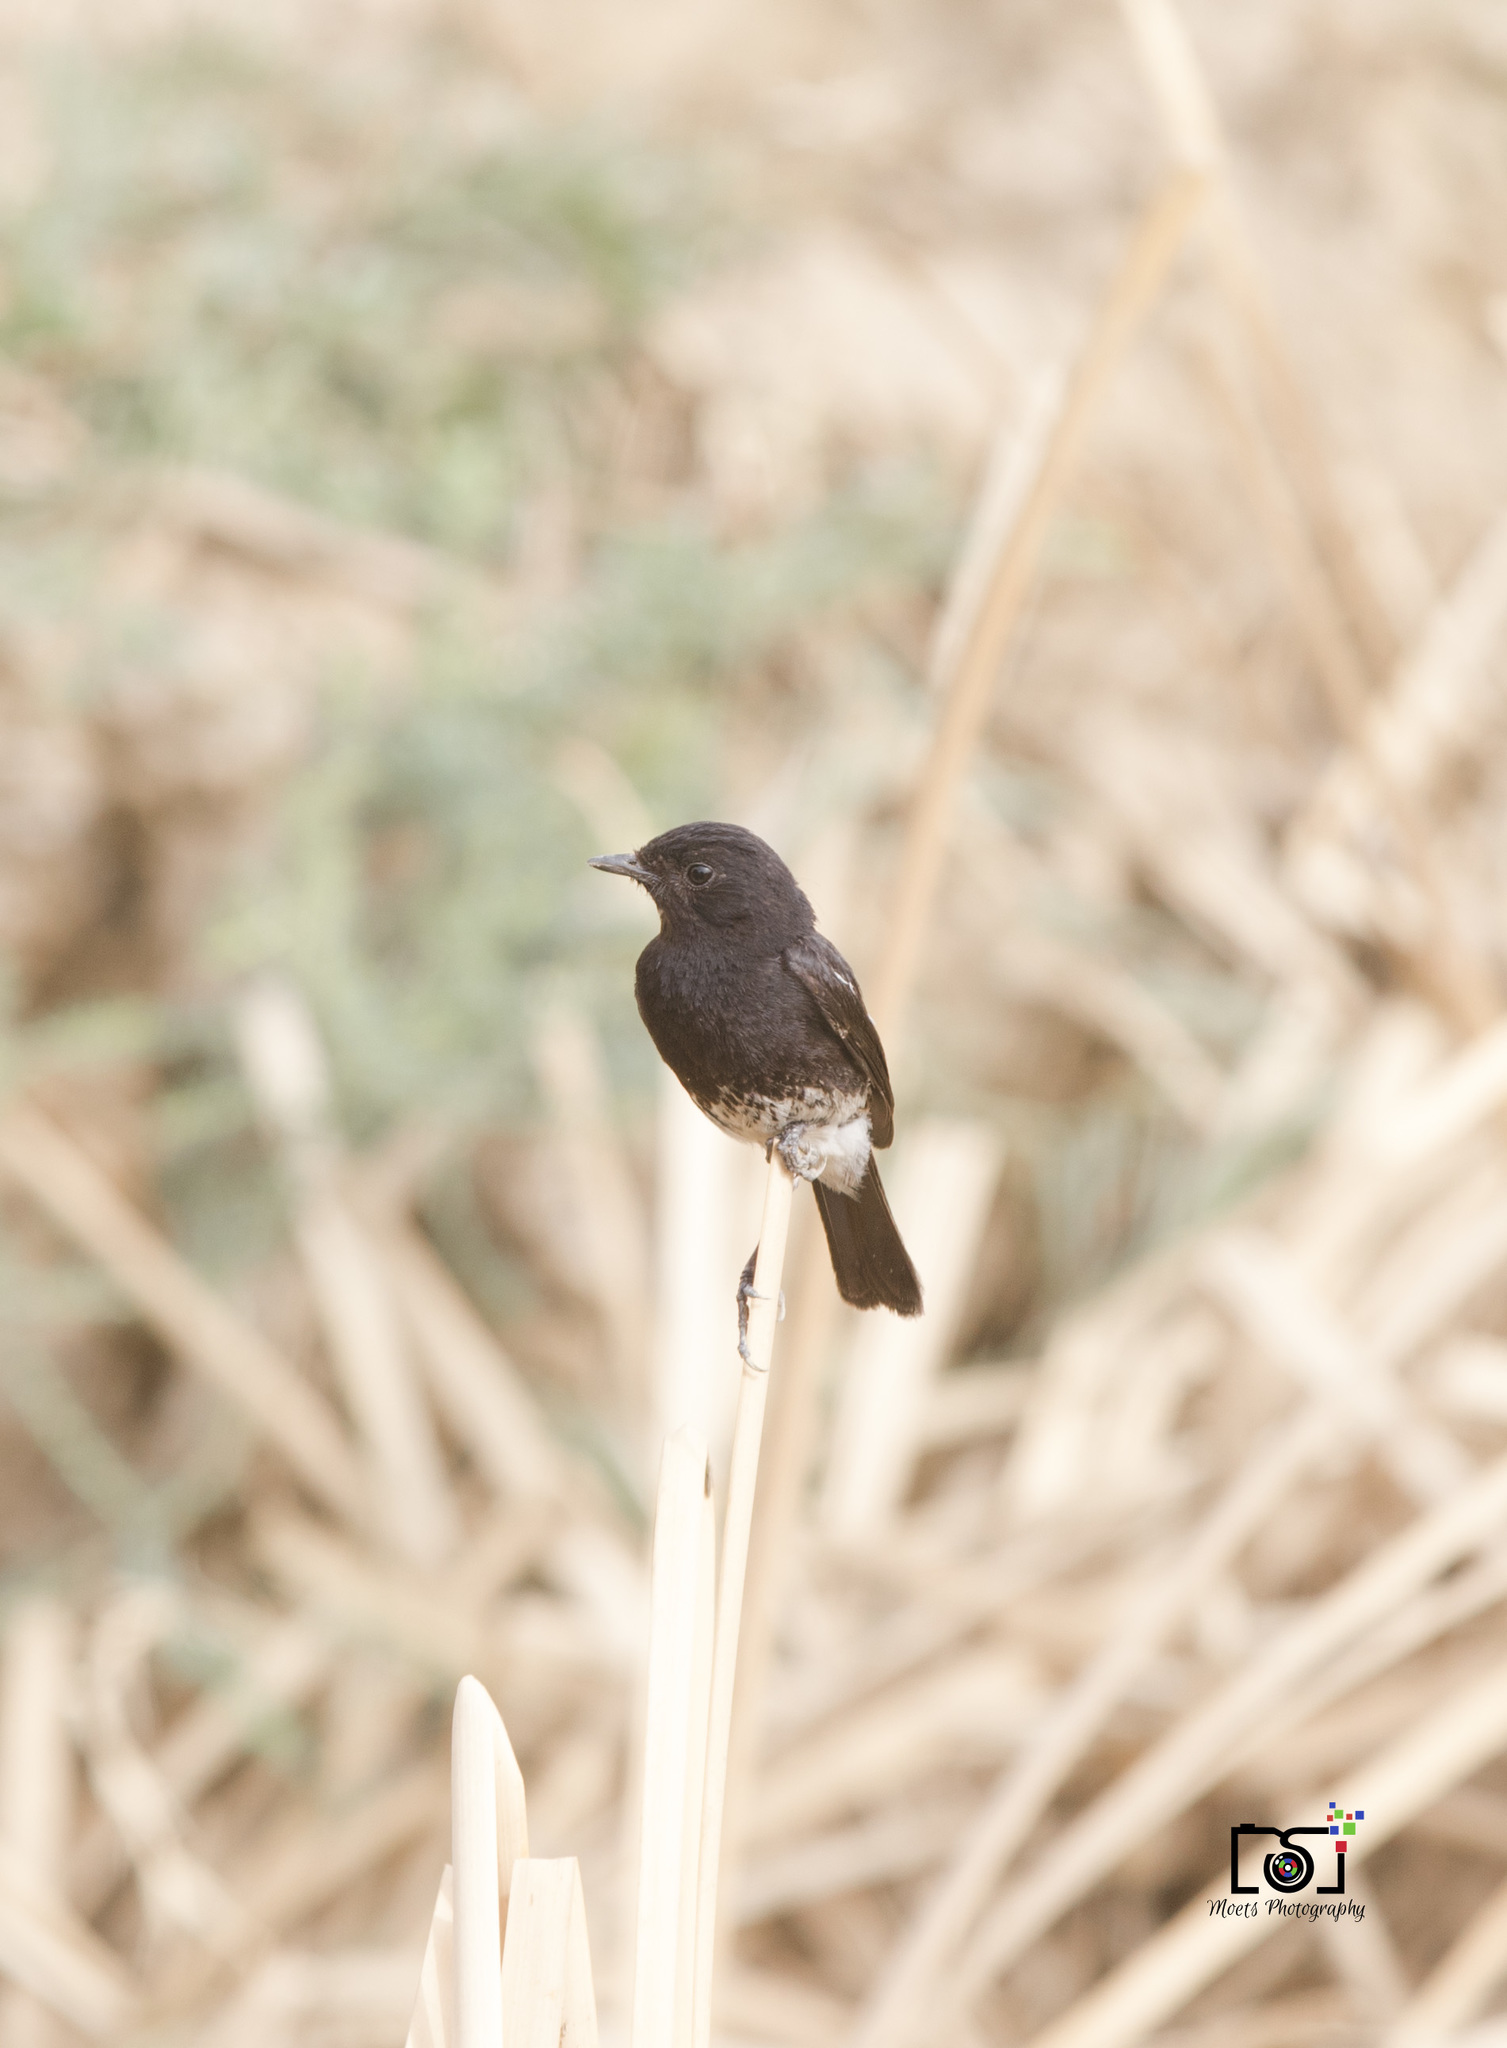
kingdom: Animalia
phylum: Chordata
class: Aves
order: Passeriformes
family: Muscicapidae
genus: Saxicola
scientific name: Saxicola caprata
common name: Pied bush chat
